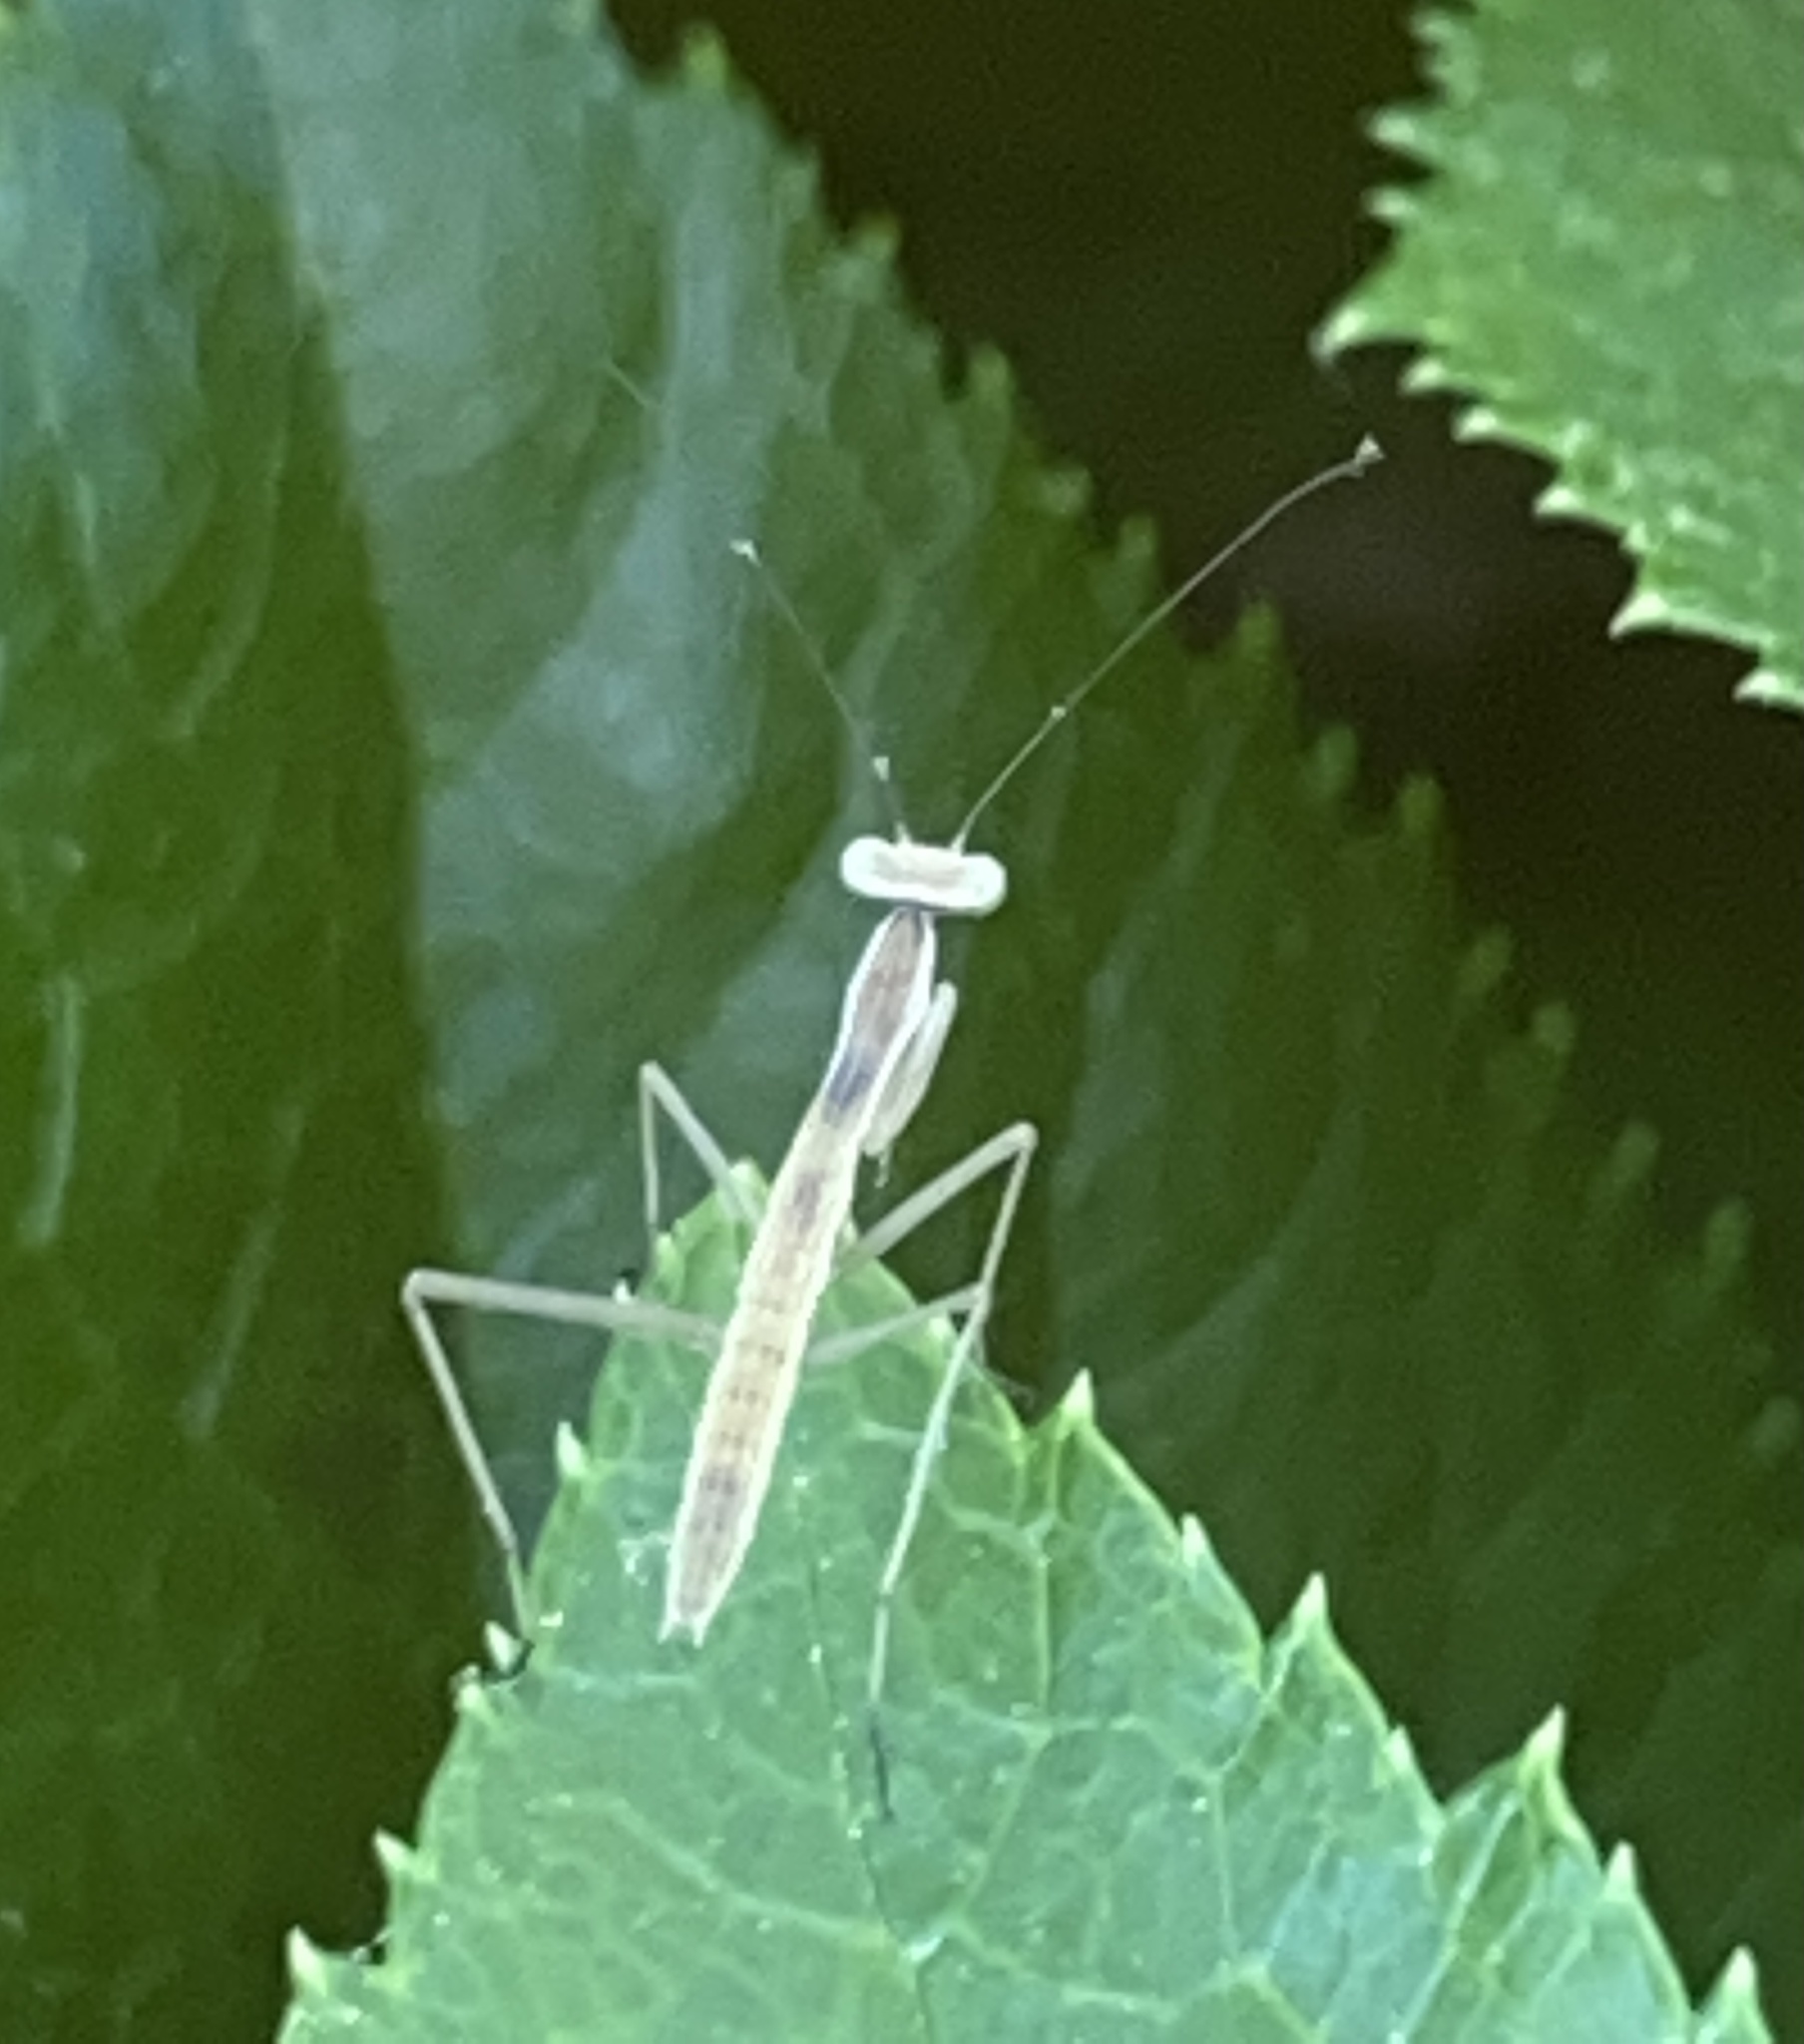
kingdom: Animalia
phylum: Arthropoda
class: Insecta
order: Mantodea
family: Mantidae
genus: Tenodera
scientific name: Tenodera sinensis
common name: Chinese mantis
